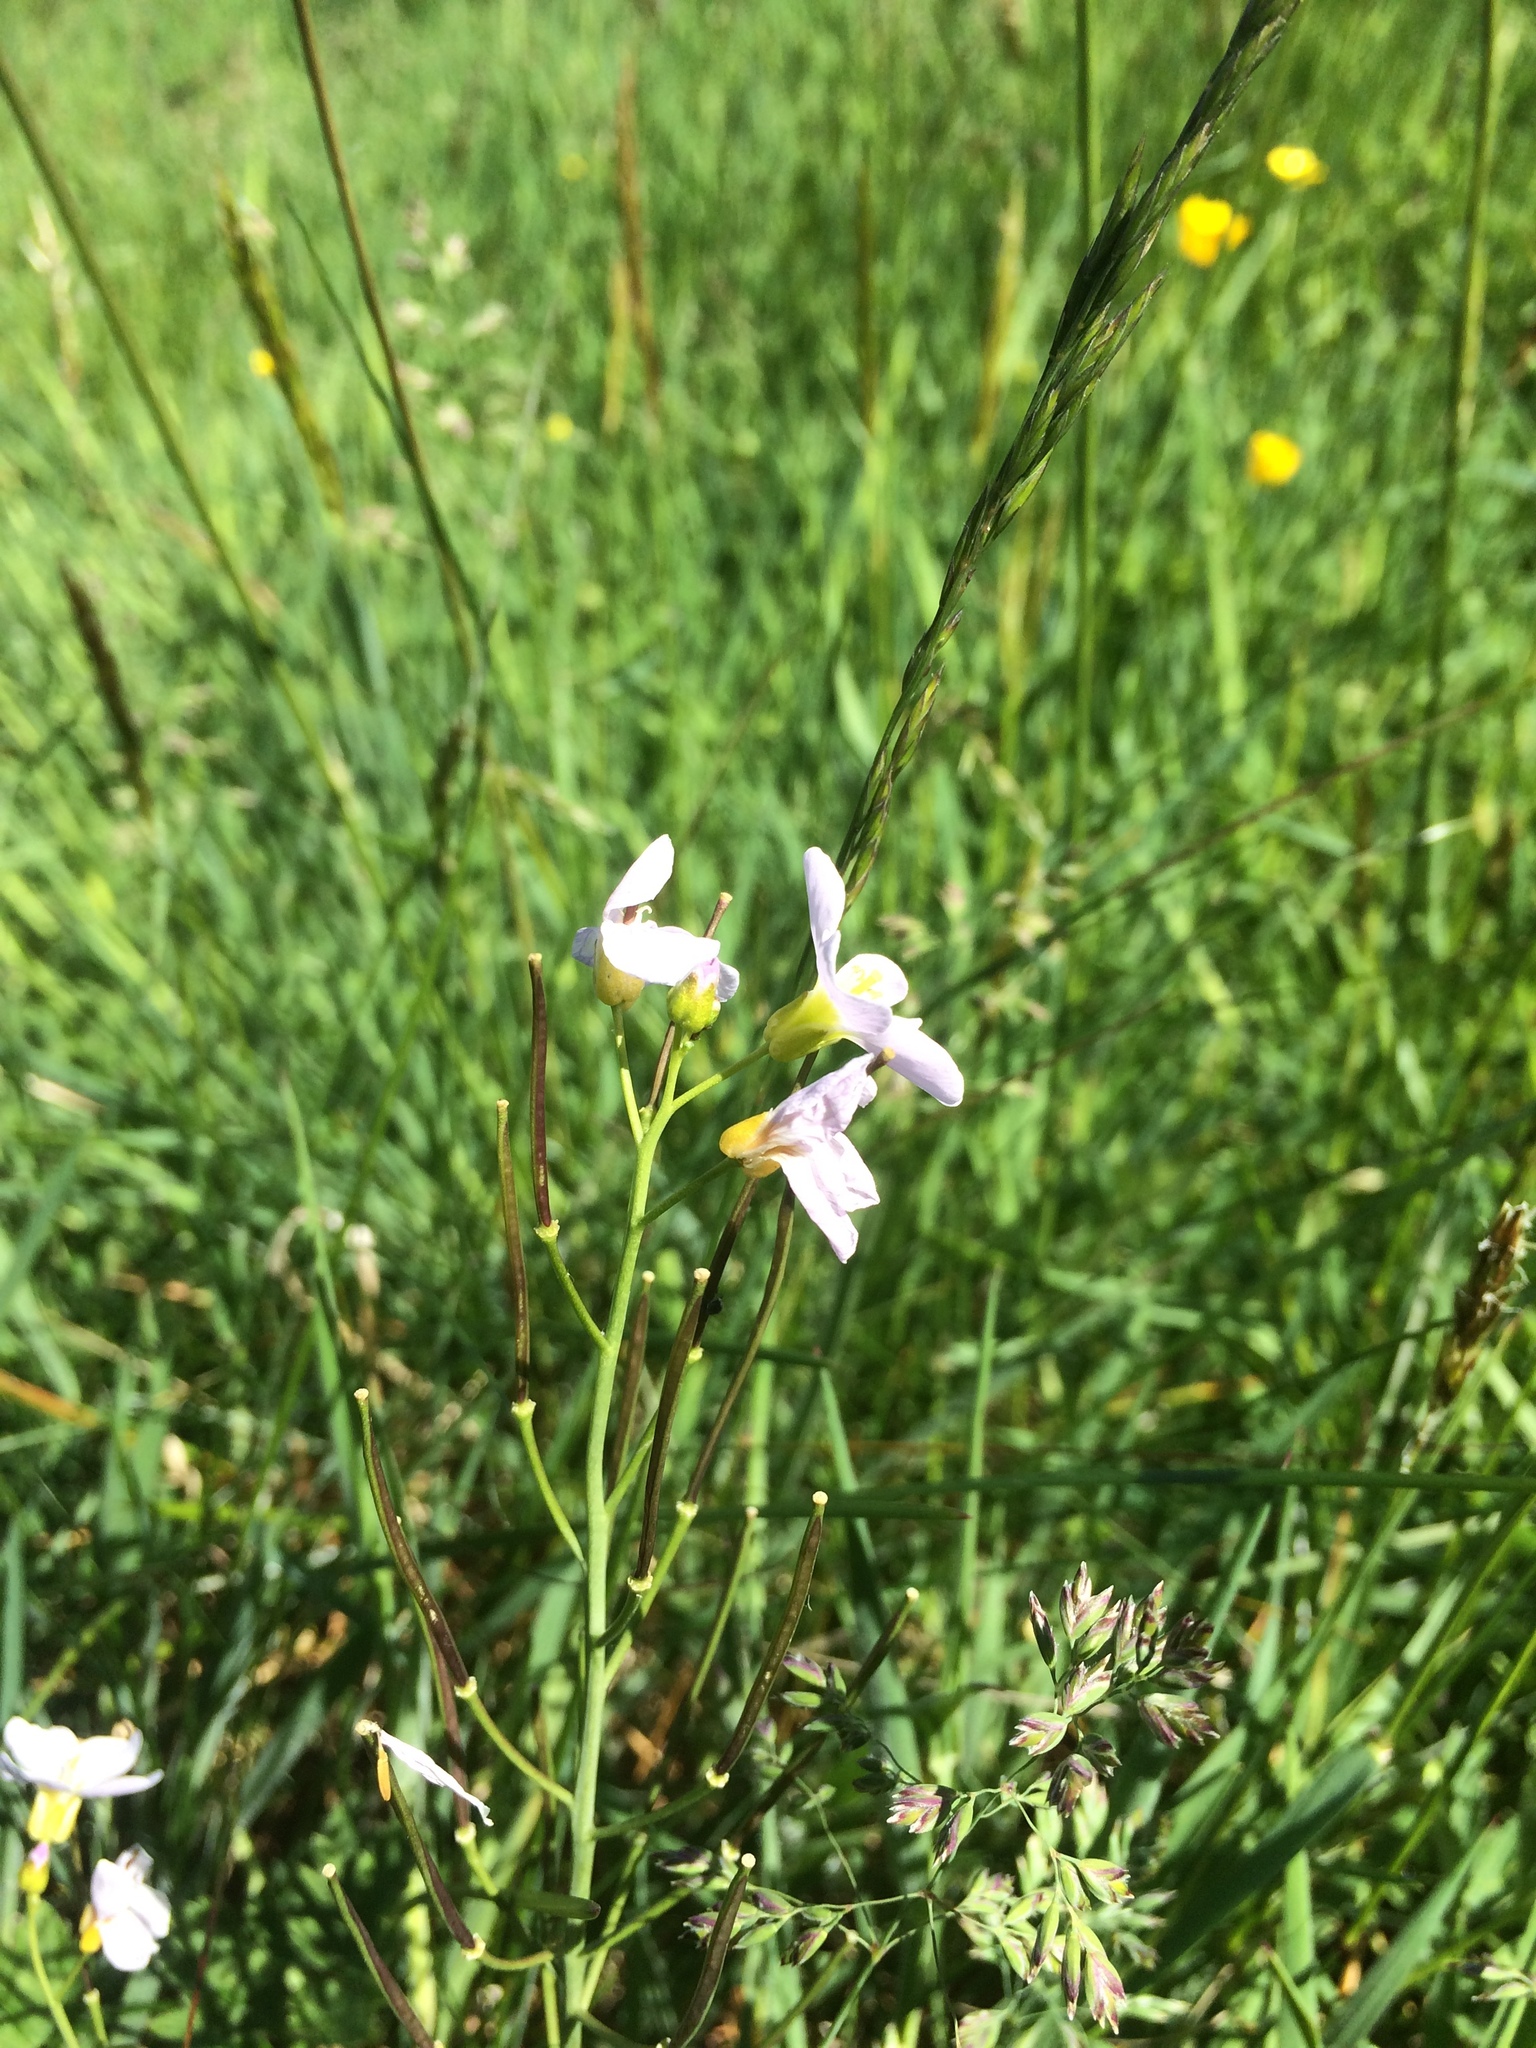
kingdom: Plantae
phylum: Tracheophyta
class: Magnoliopsida
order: Brassicales
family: Brassicaceae
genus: Cardamine
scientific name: Cardamine pratensis
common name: Cuckoo flower
